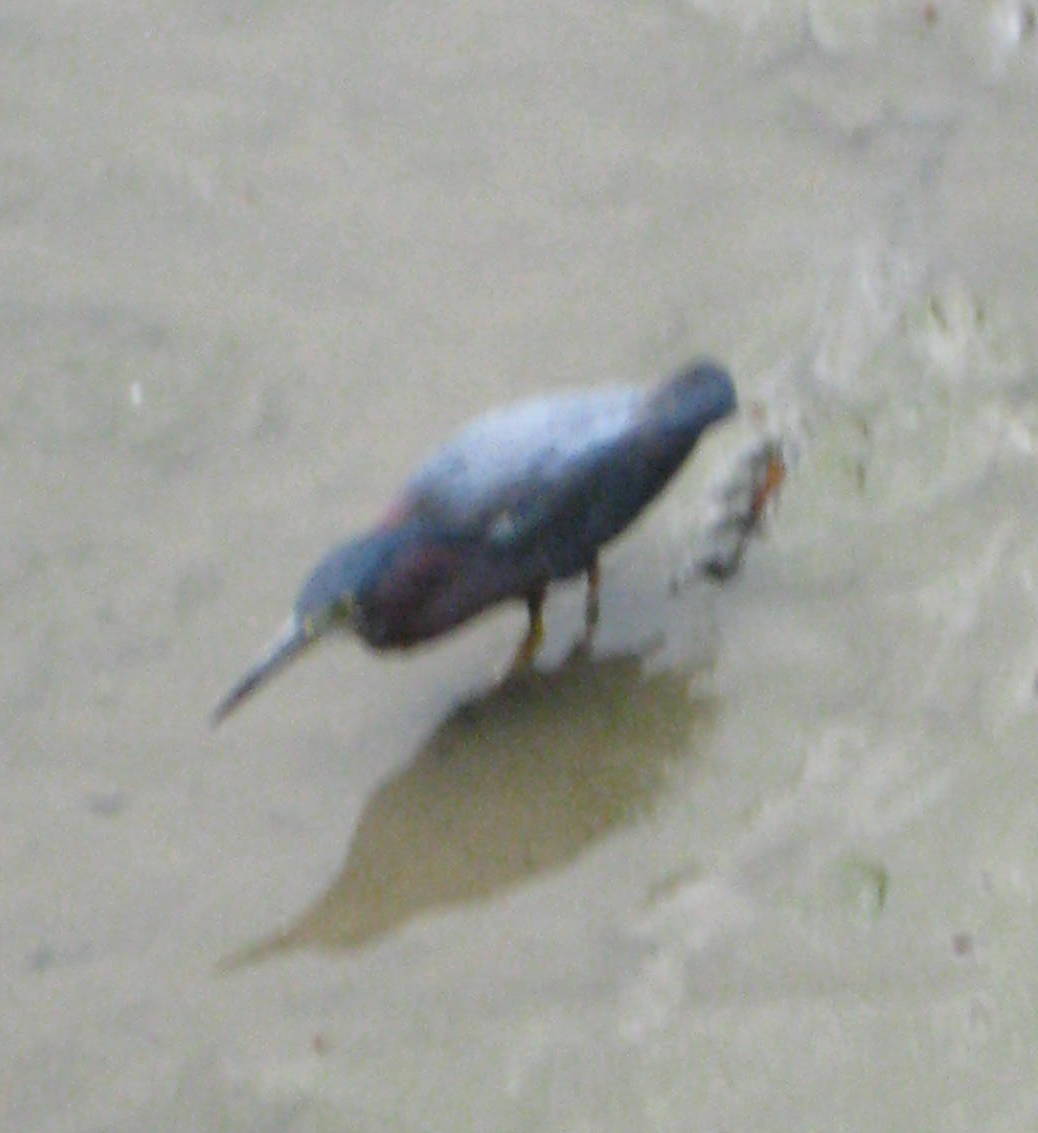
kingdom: Animalia
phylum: Chordata
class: Aves
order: Pelecaniformes
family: Ardeidae
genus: Butorides
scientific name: Butorides virescens
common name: Green heron
